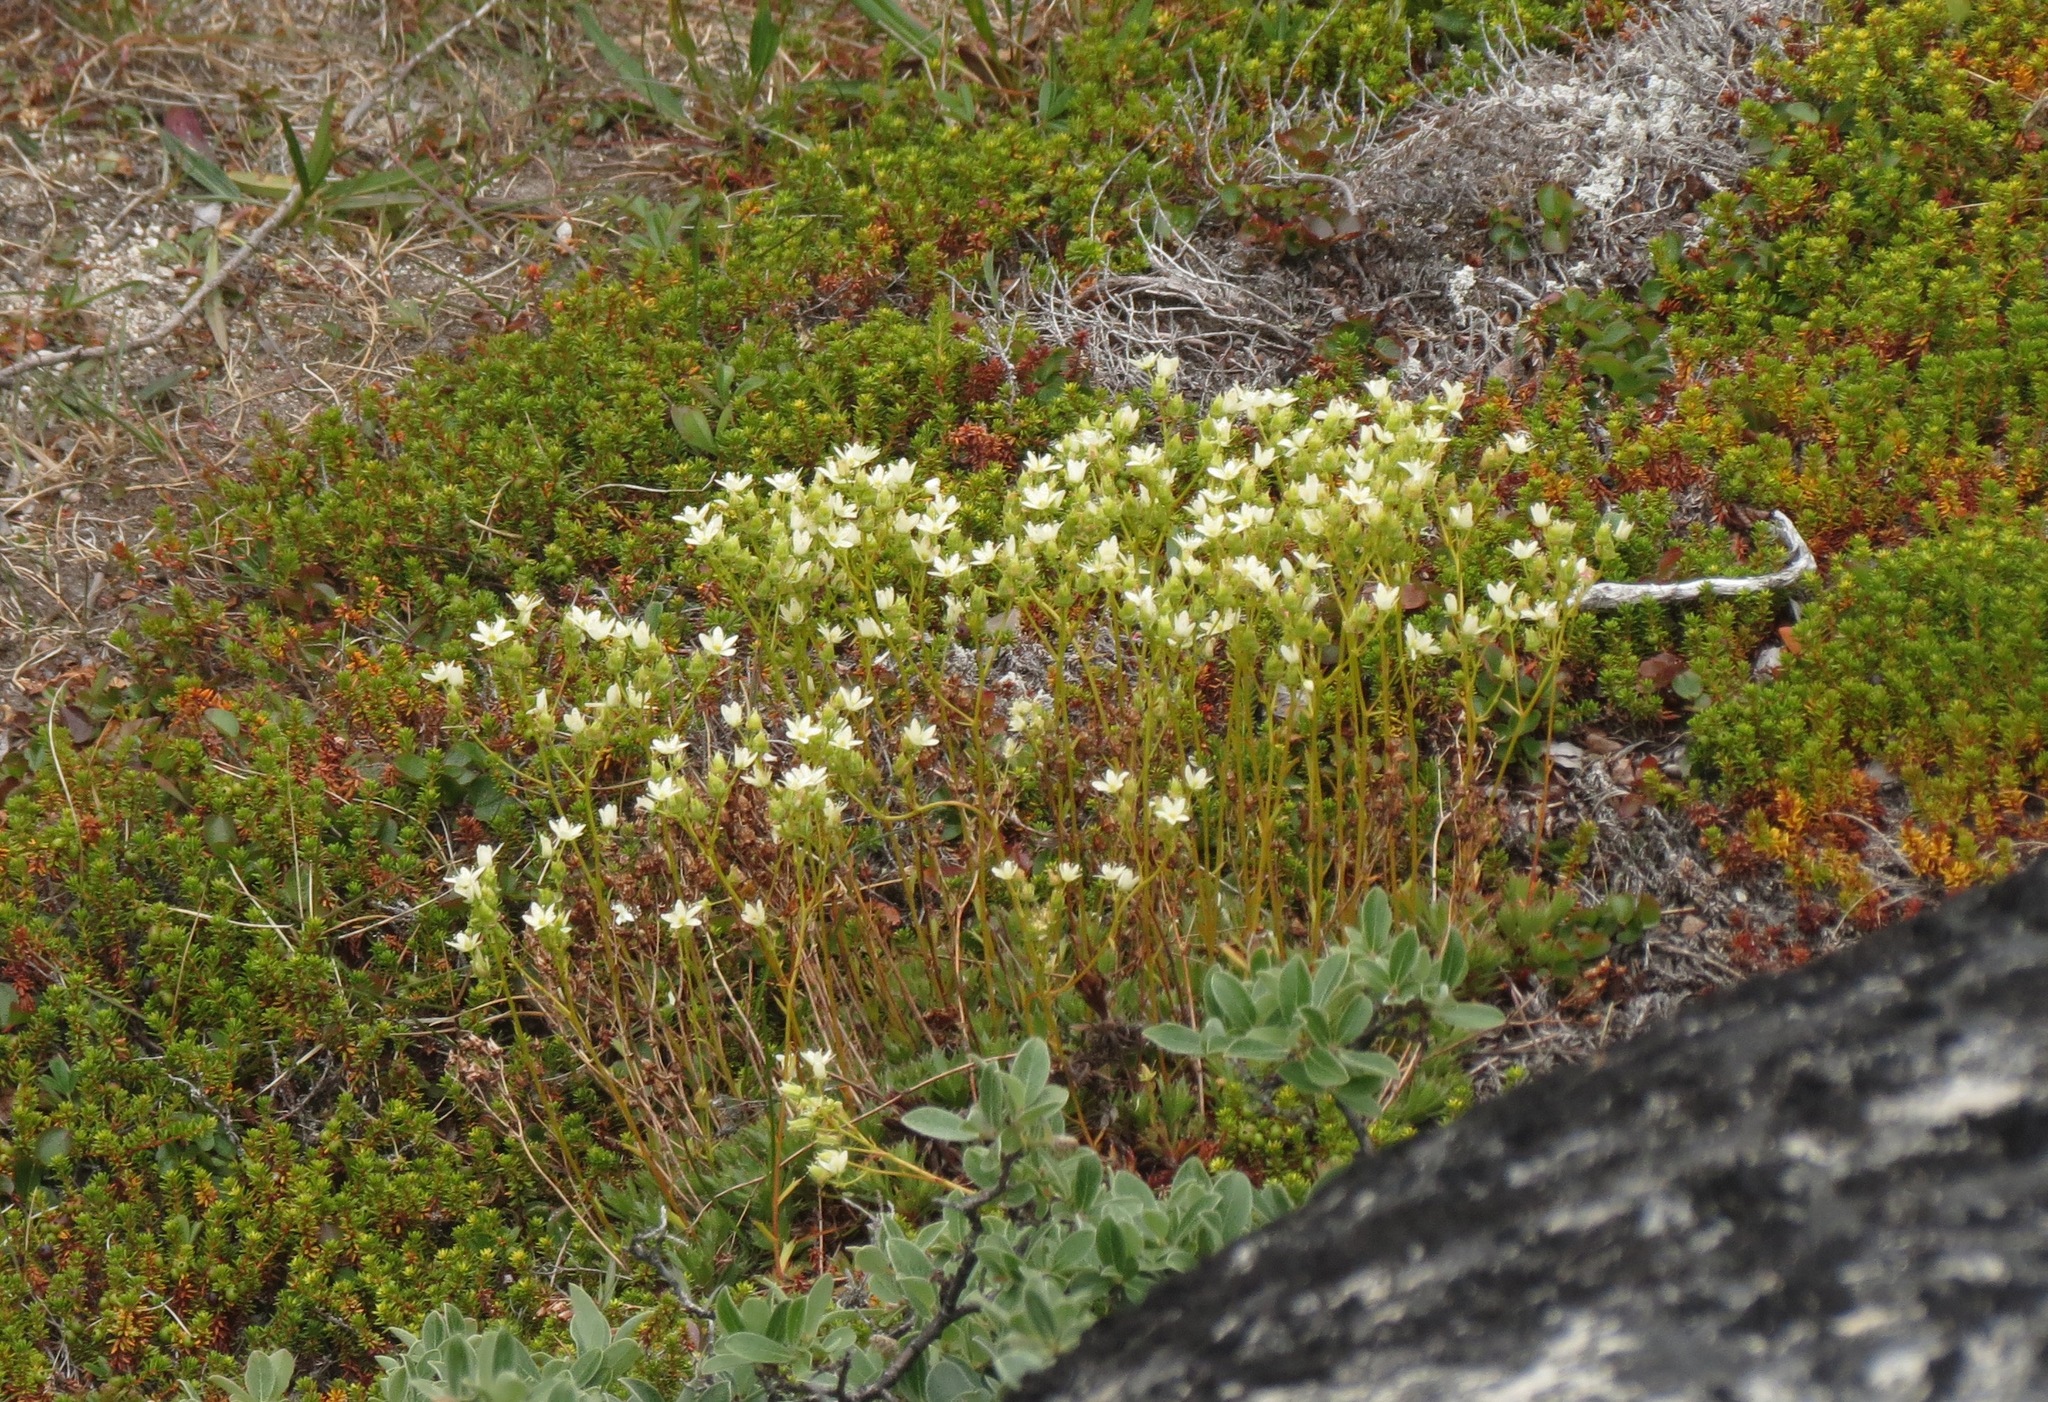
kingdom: Plantae
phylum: Tracheophyta
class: Magnoliopsida
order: Saxifragales
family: Saxifragaceae
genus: Saxifraga
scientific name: Saxifraga tricuspidata
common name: Prickly saxifrage
